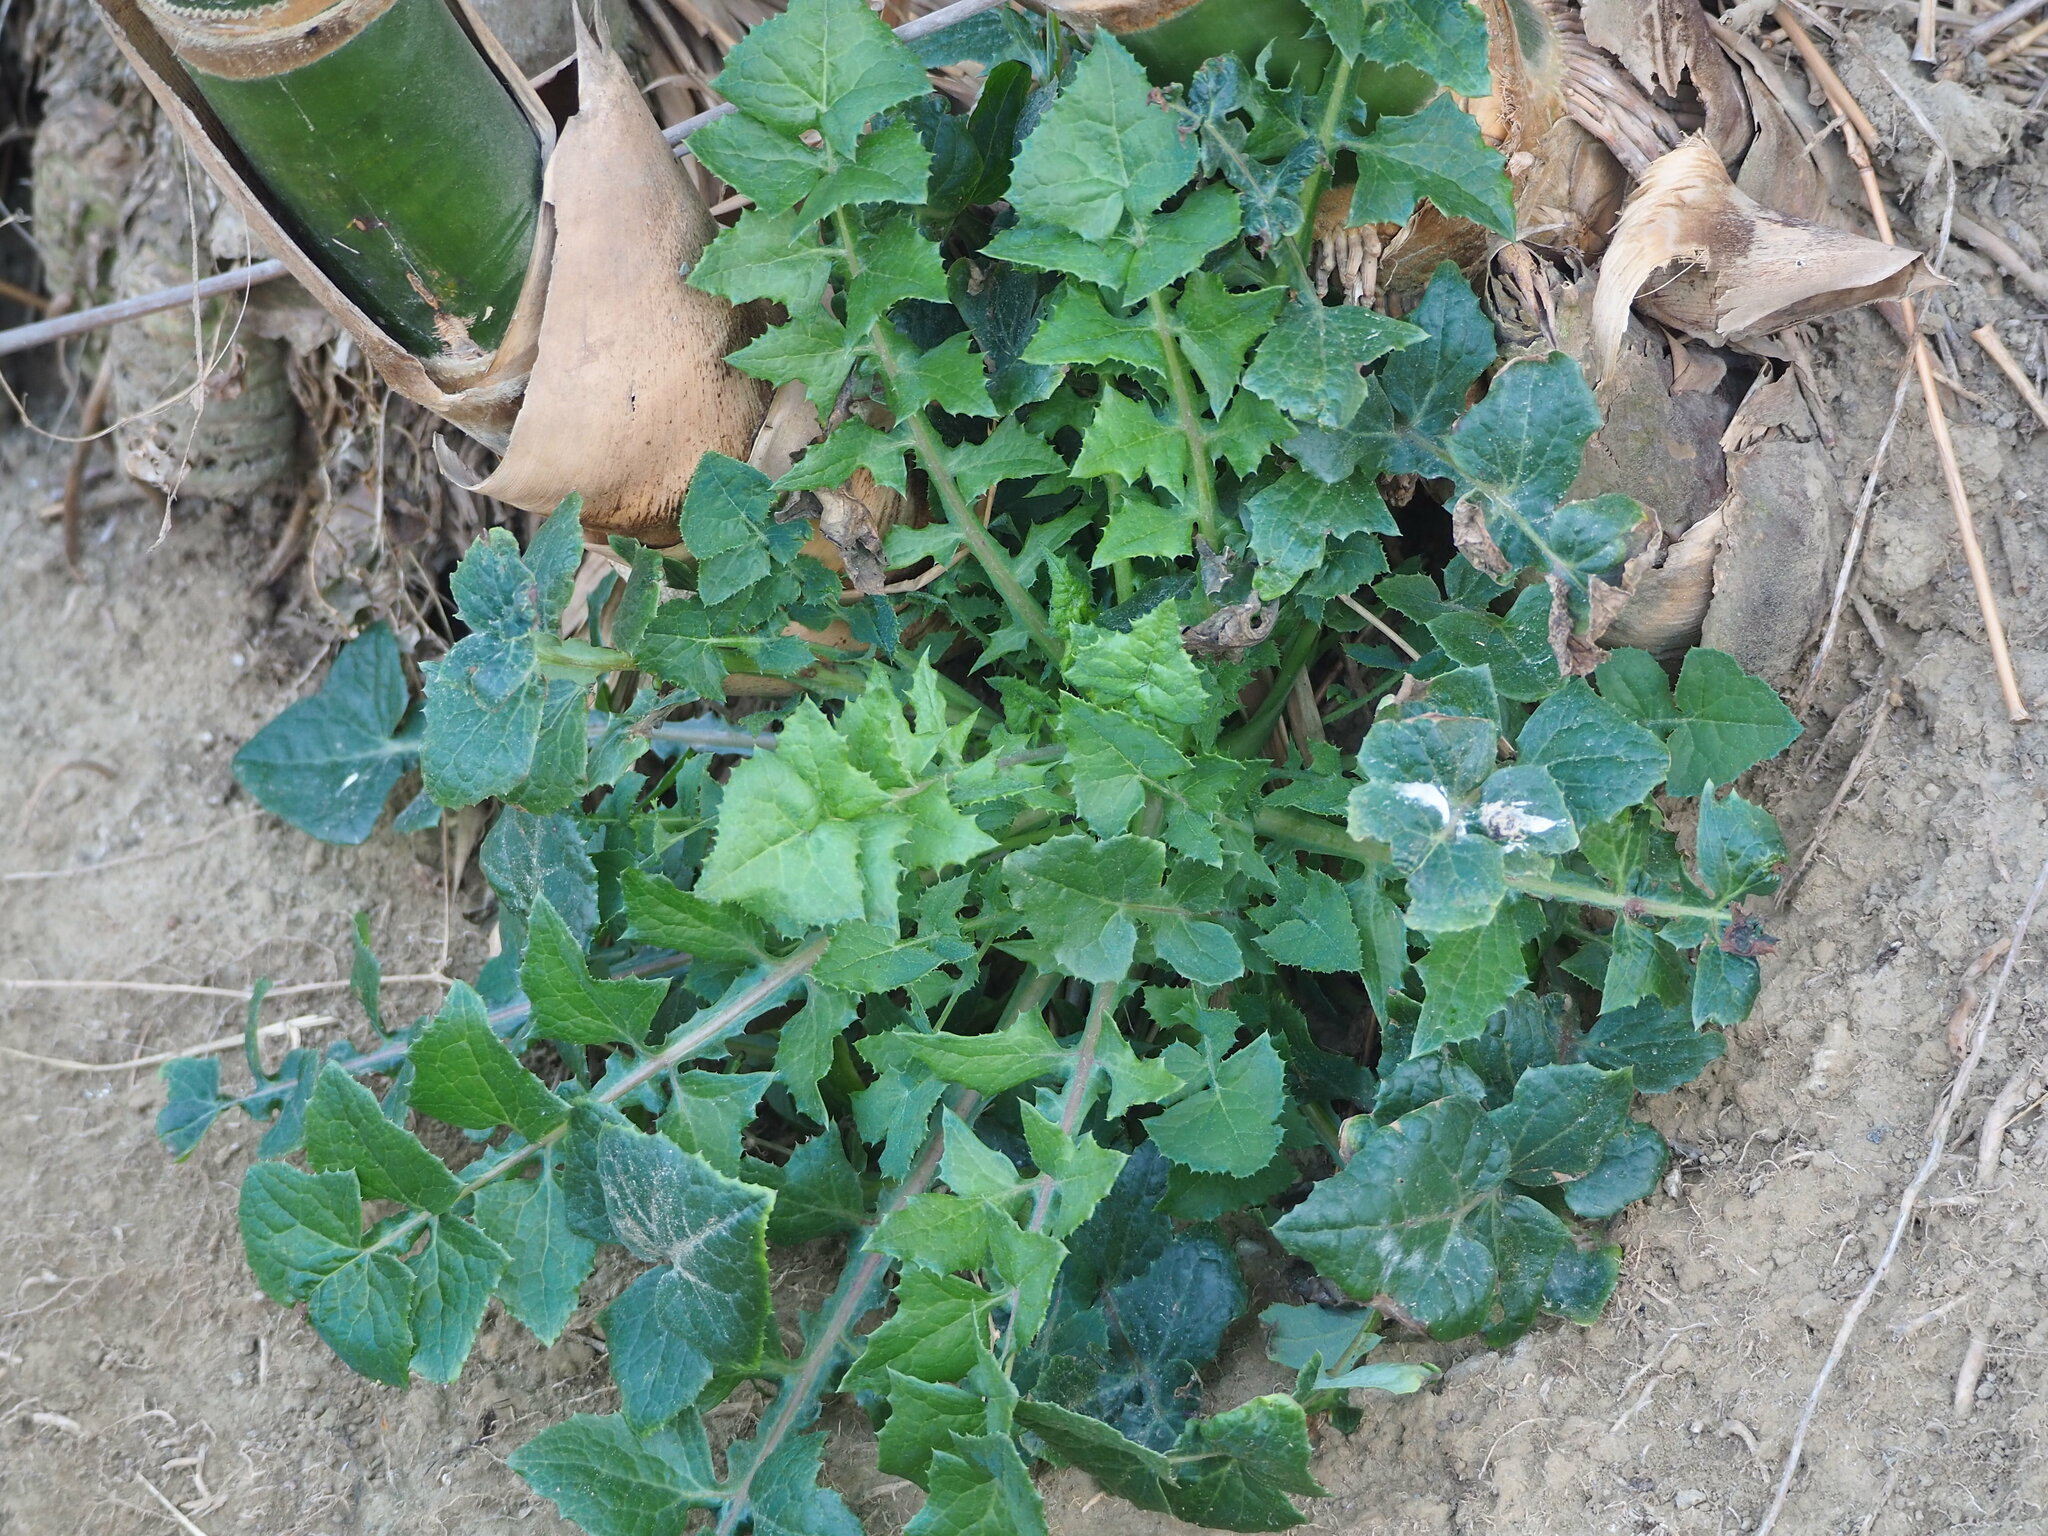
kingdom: Plantae
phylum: Tracheophyta
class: Magnoliopsida
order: Asterales
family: Asteraceae
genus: Sonchus
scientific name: Sonchus oleraceus
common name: Common sowthistle
